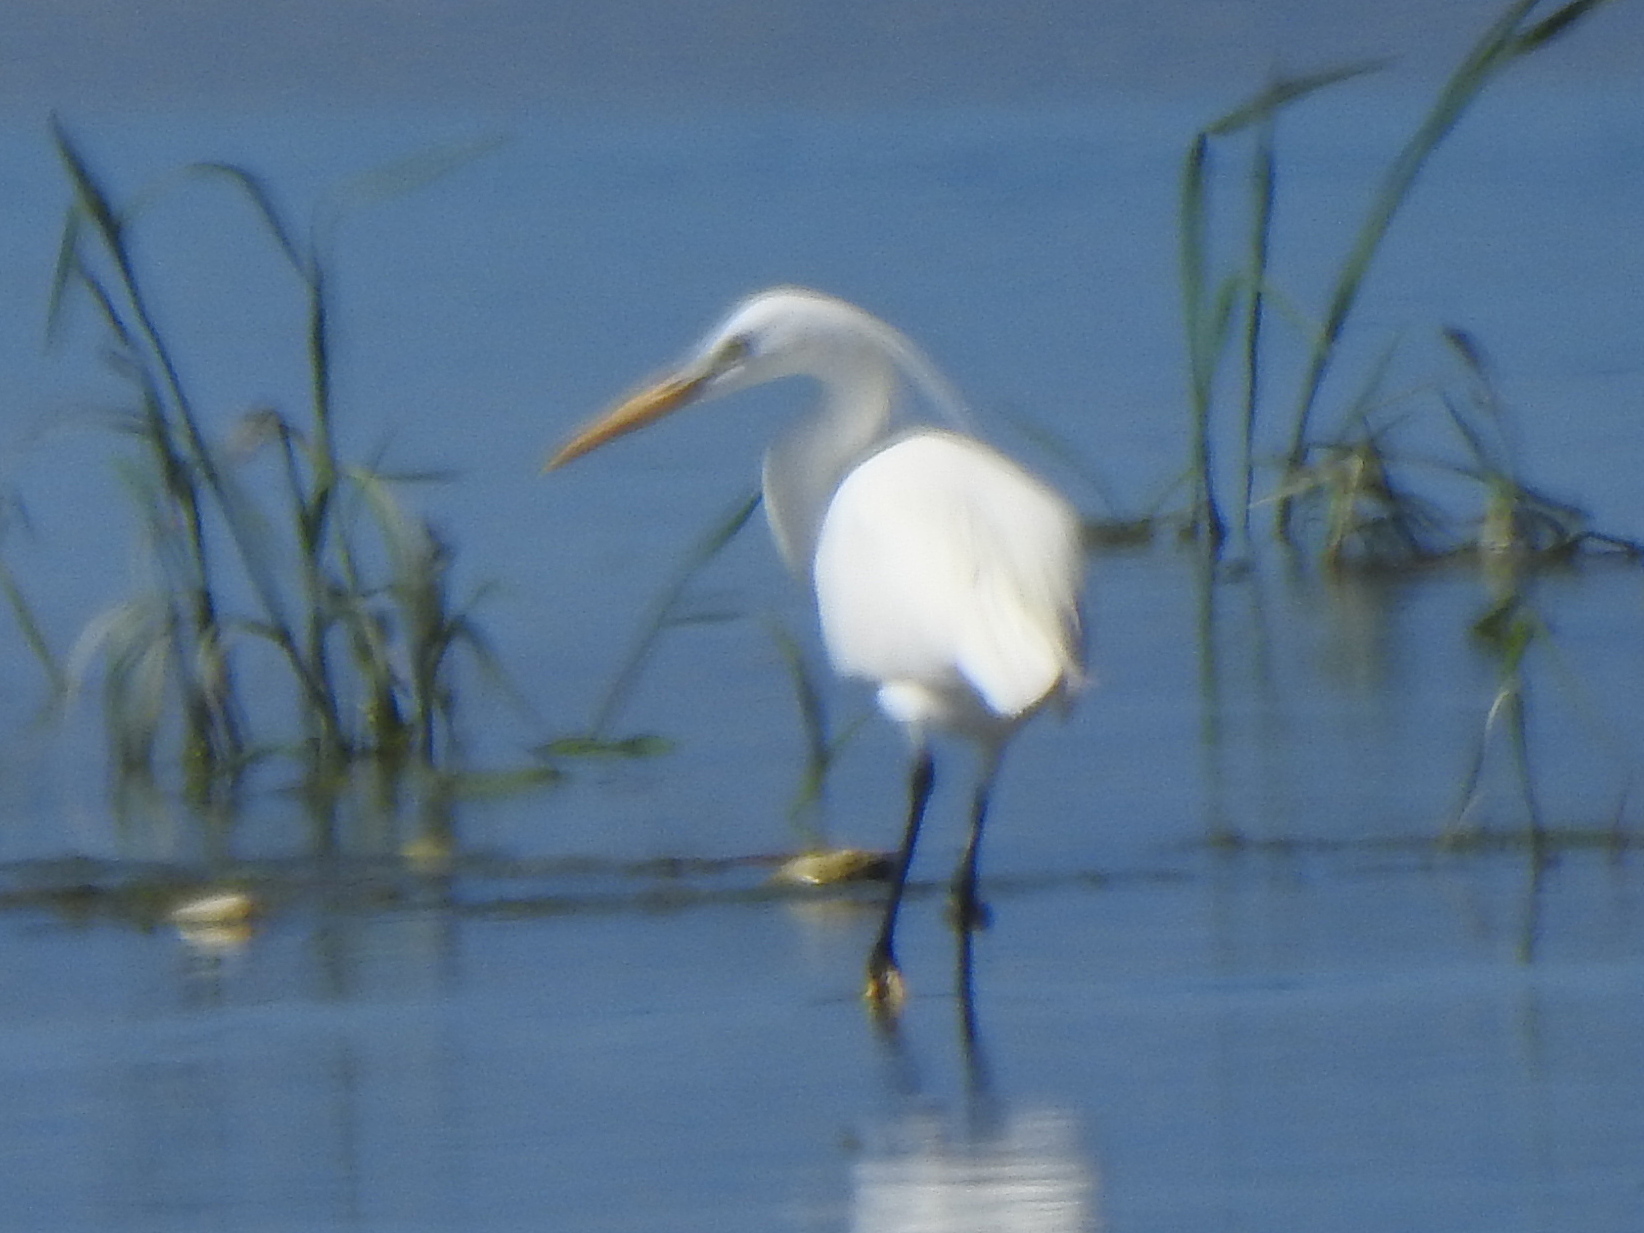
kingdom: Animalia
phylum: Chordata
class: Aves
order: Pelecaniformes
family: Ardeidae
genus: Egretta
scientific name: Egretta eulophotes
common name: Chinese egret
